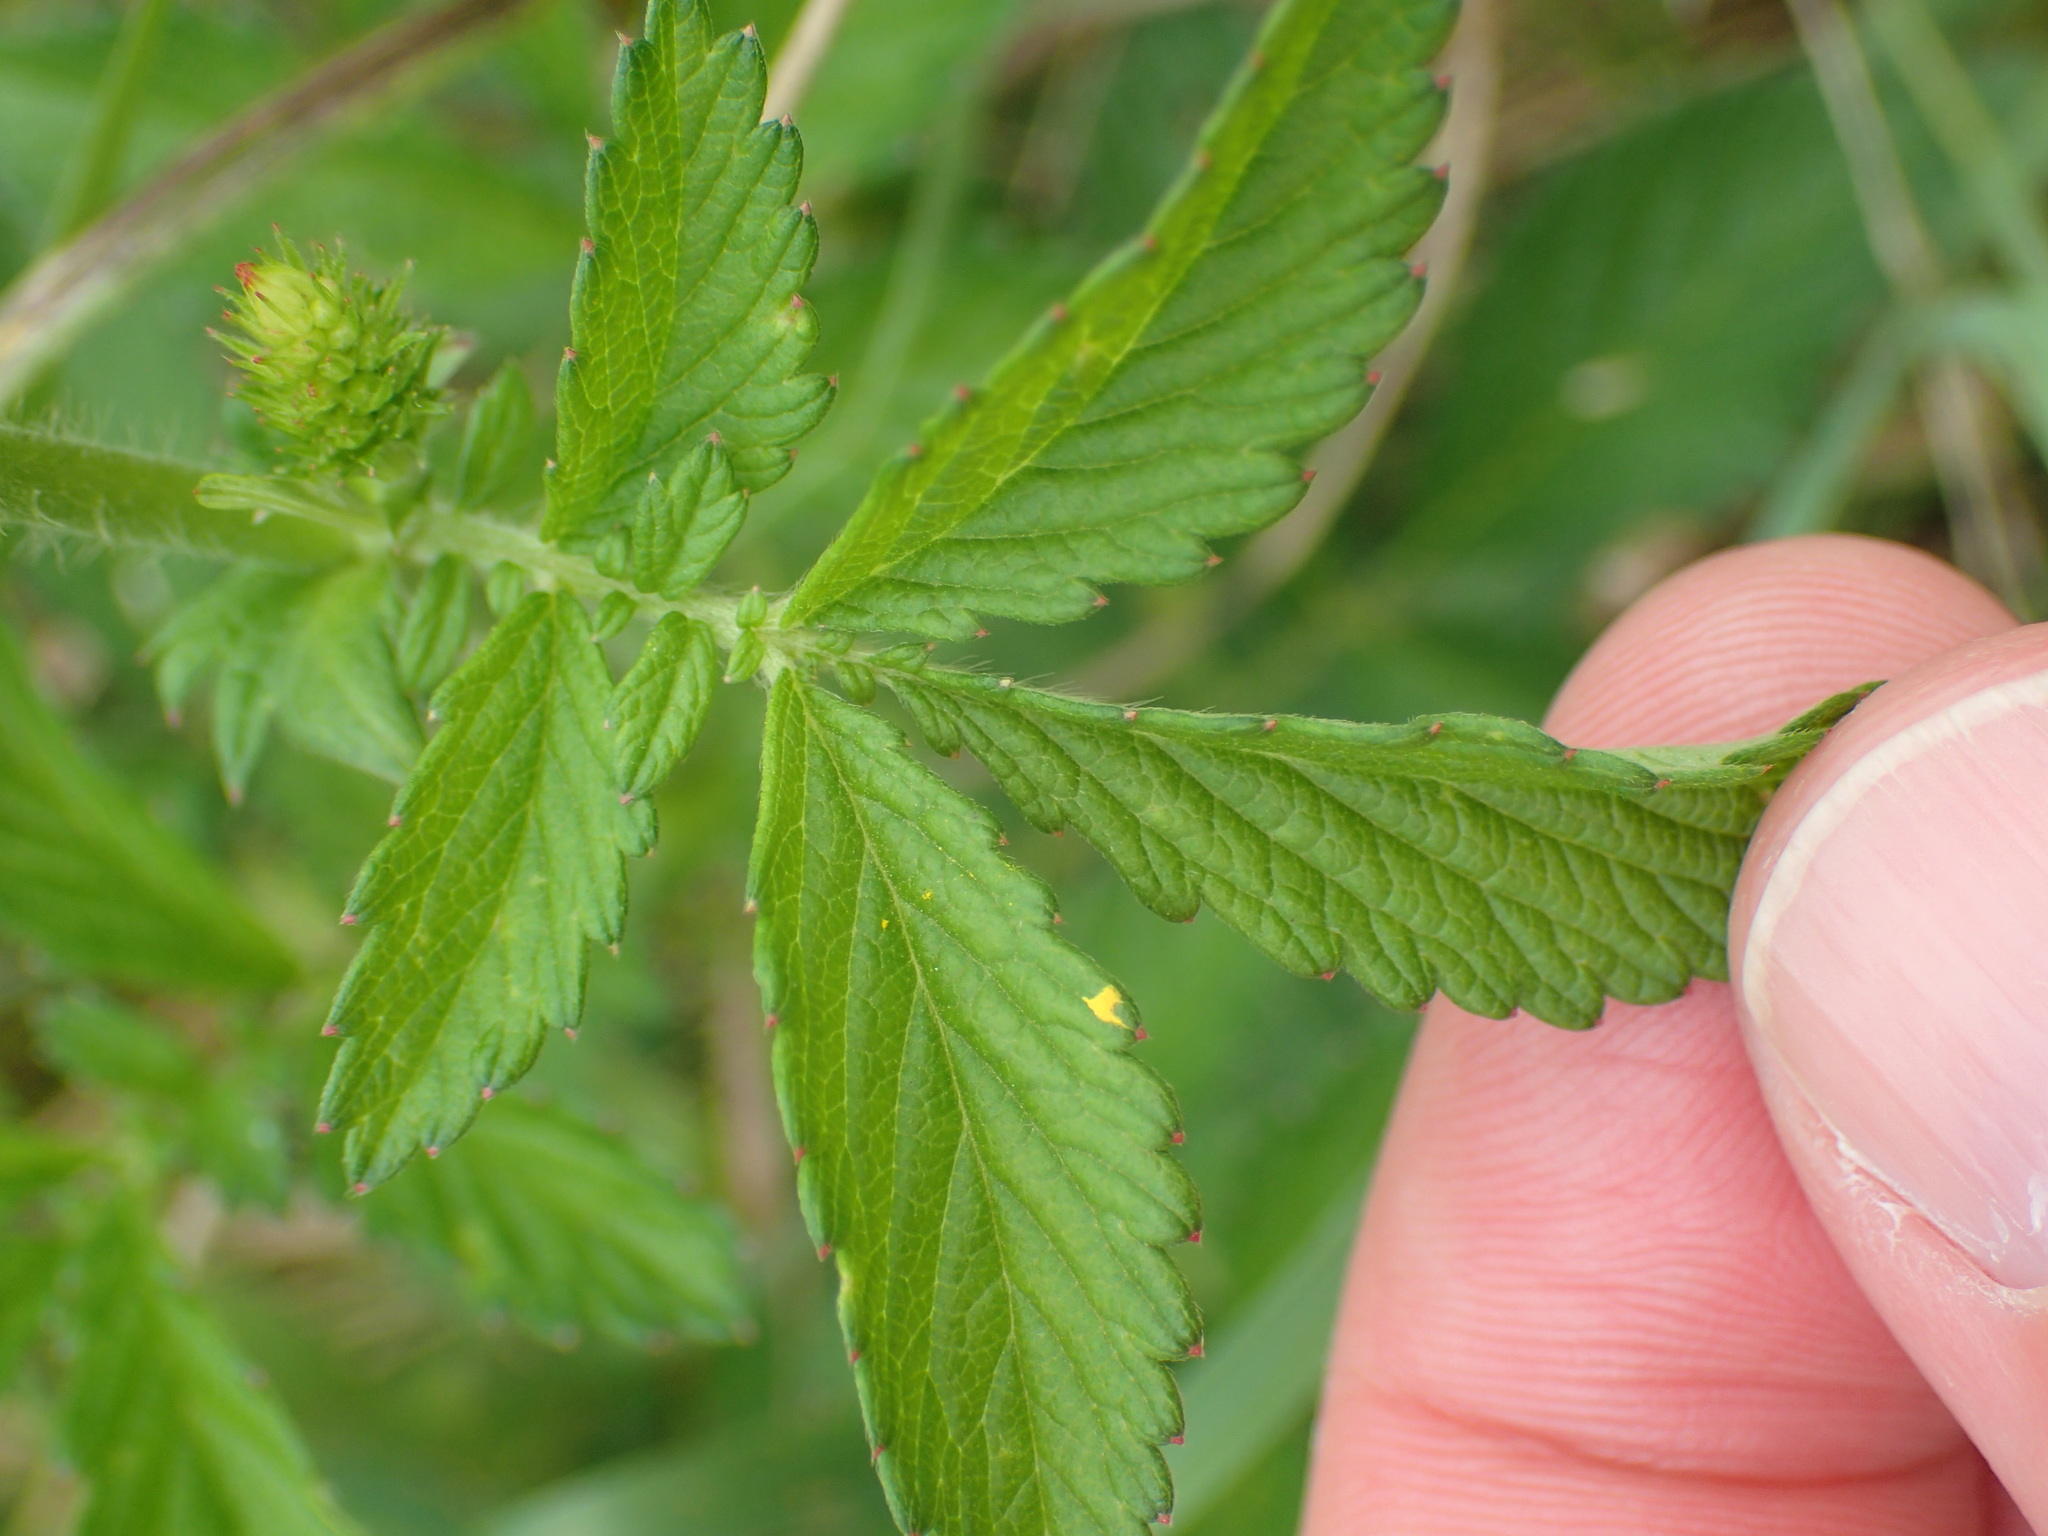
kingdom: Plantae
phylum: Tracheophyta
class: Magnoliopsida
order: Rosales
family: Rosaceae
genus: Agrimonia
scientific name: Agrimonia gryposepala
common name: Common agrimony
